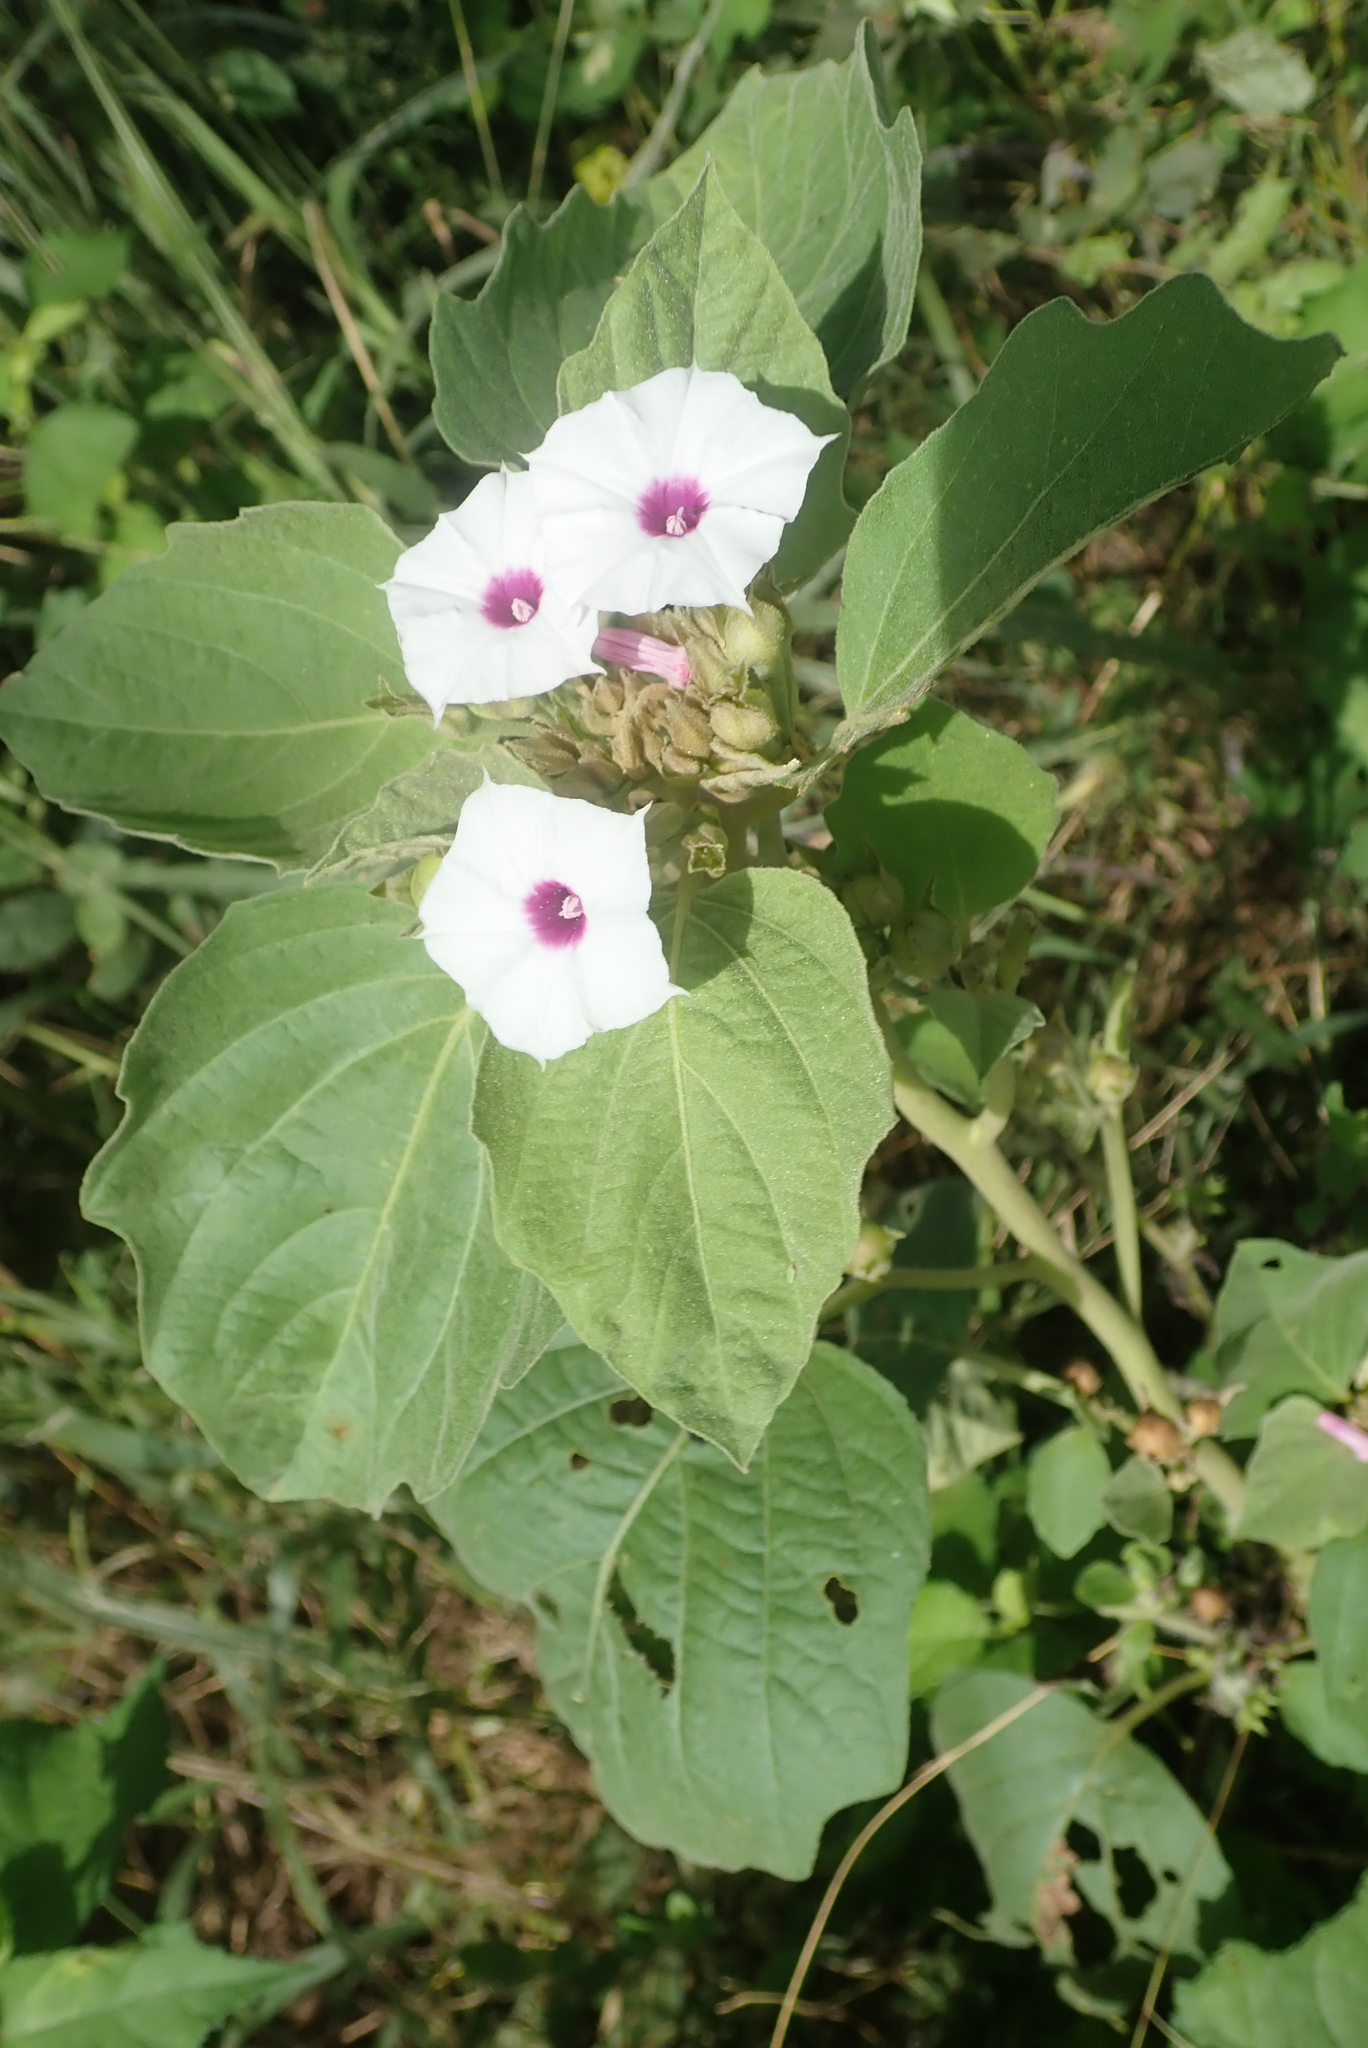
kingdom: Plantae
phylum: Tracheophyta
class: Magnoliopsida
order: Solanales
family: Convolvulaceae
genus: Astripomoea
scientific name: Astripomoea lachnosperma
